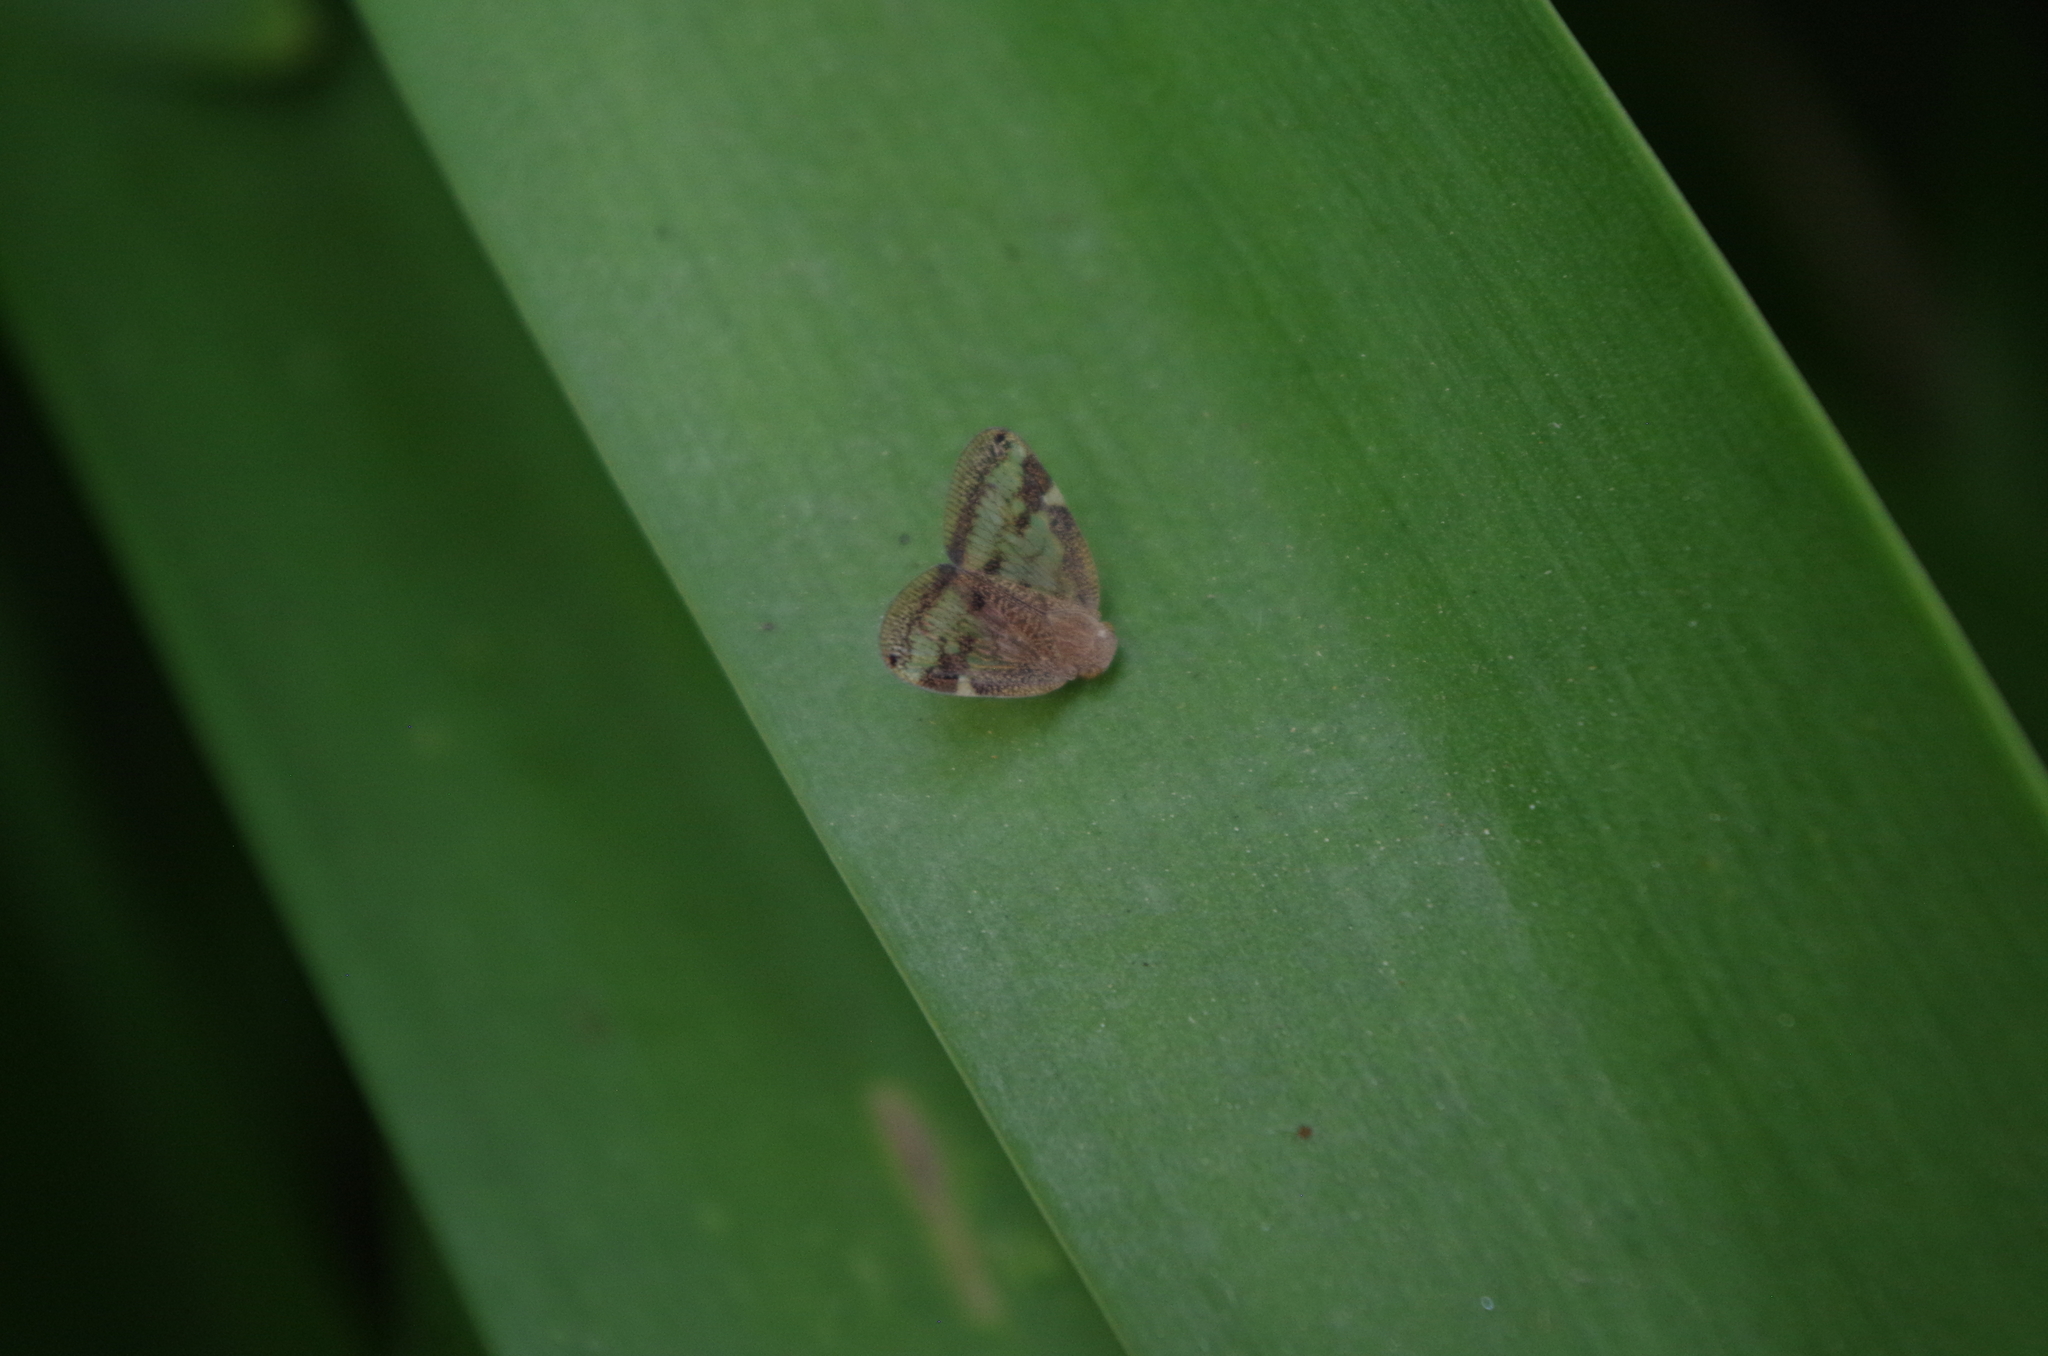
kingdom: Animalia
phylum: Arthropoda
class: Insecta
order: Hemiptera
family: Ricaniidae
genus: Scolypopa
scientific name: Scolypopa australis
